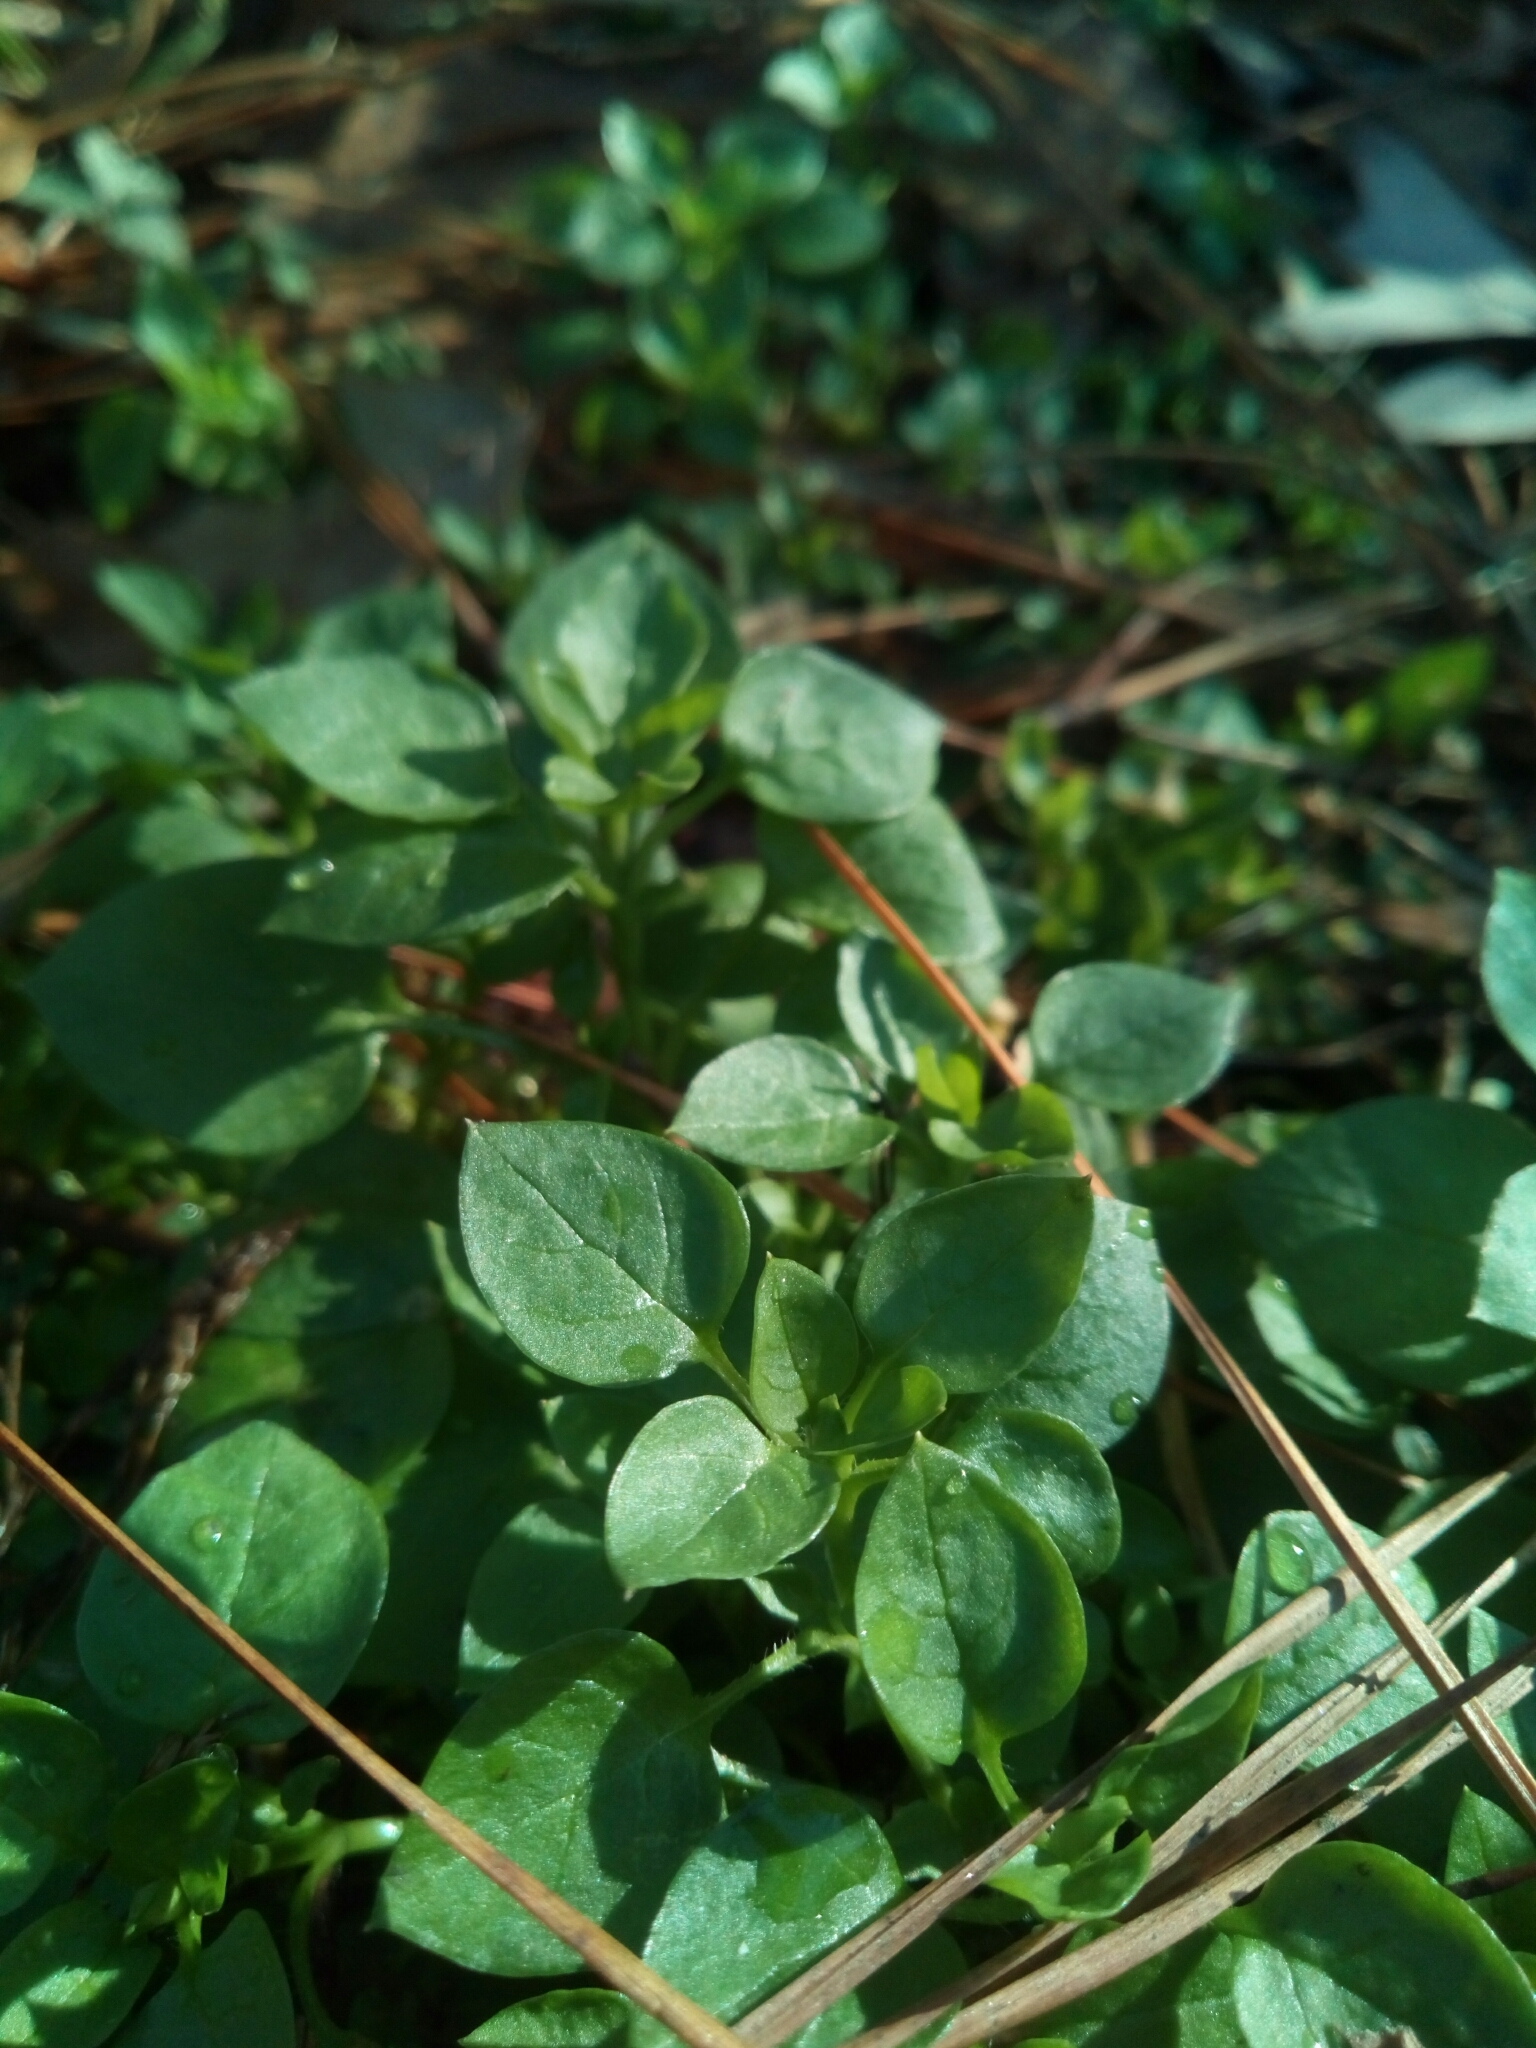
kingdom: Plantae
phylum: Tracheophyta
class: Magnoliopsida
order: Caryophyllales
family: Caryophyllaceae
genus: Stellaria
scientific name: Stellaria media
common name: Common chickweed
